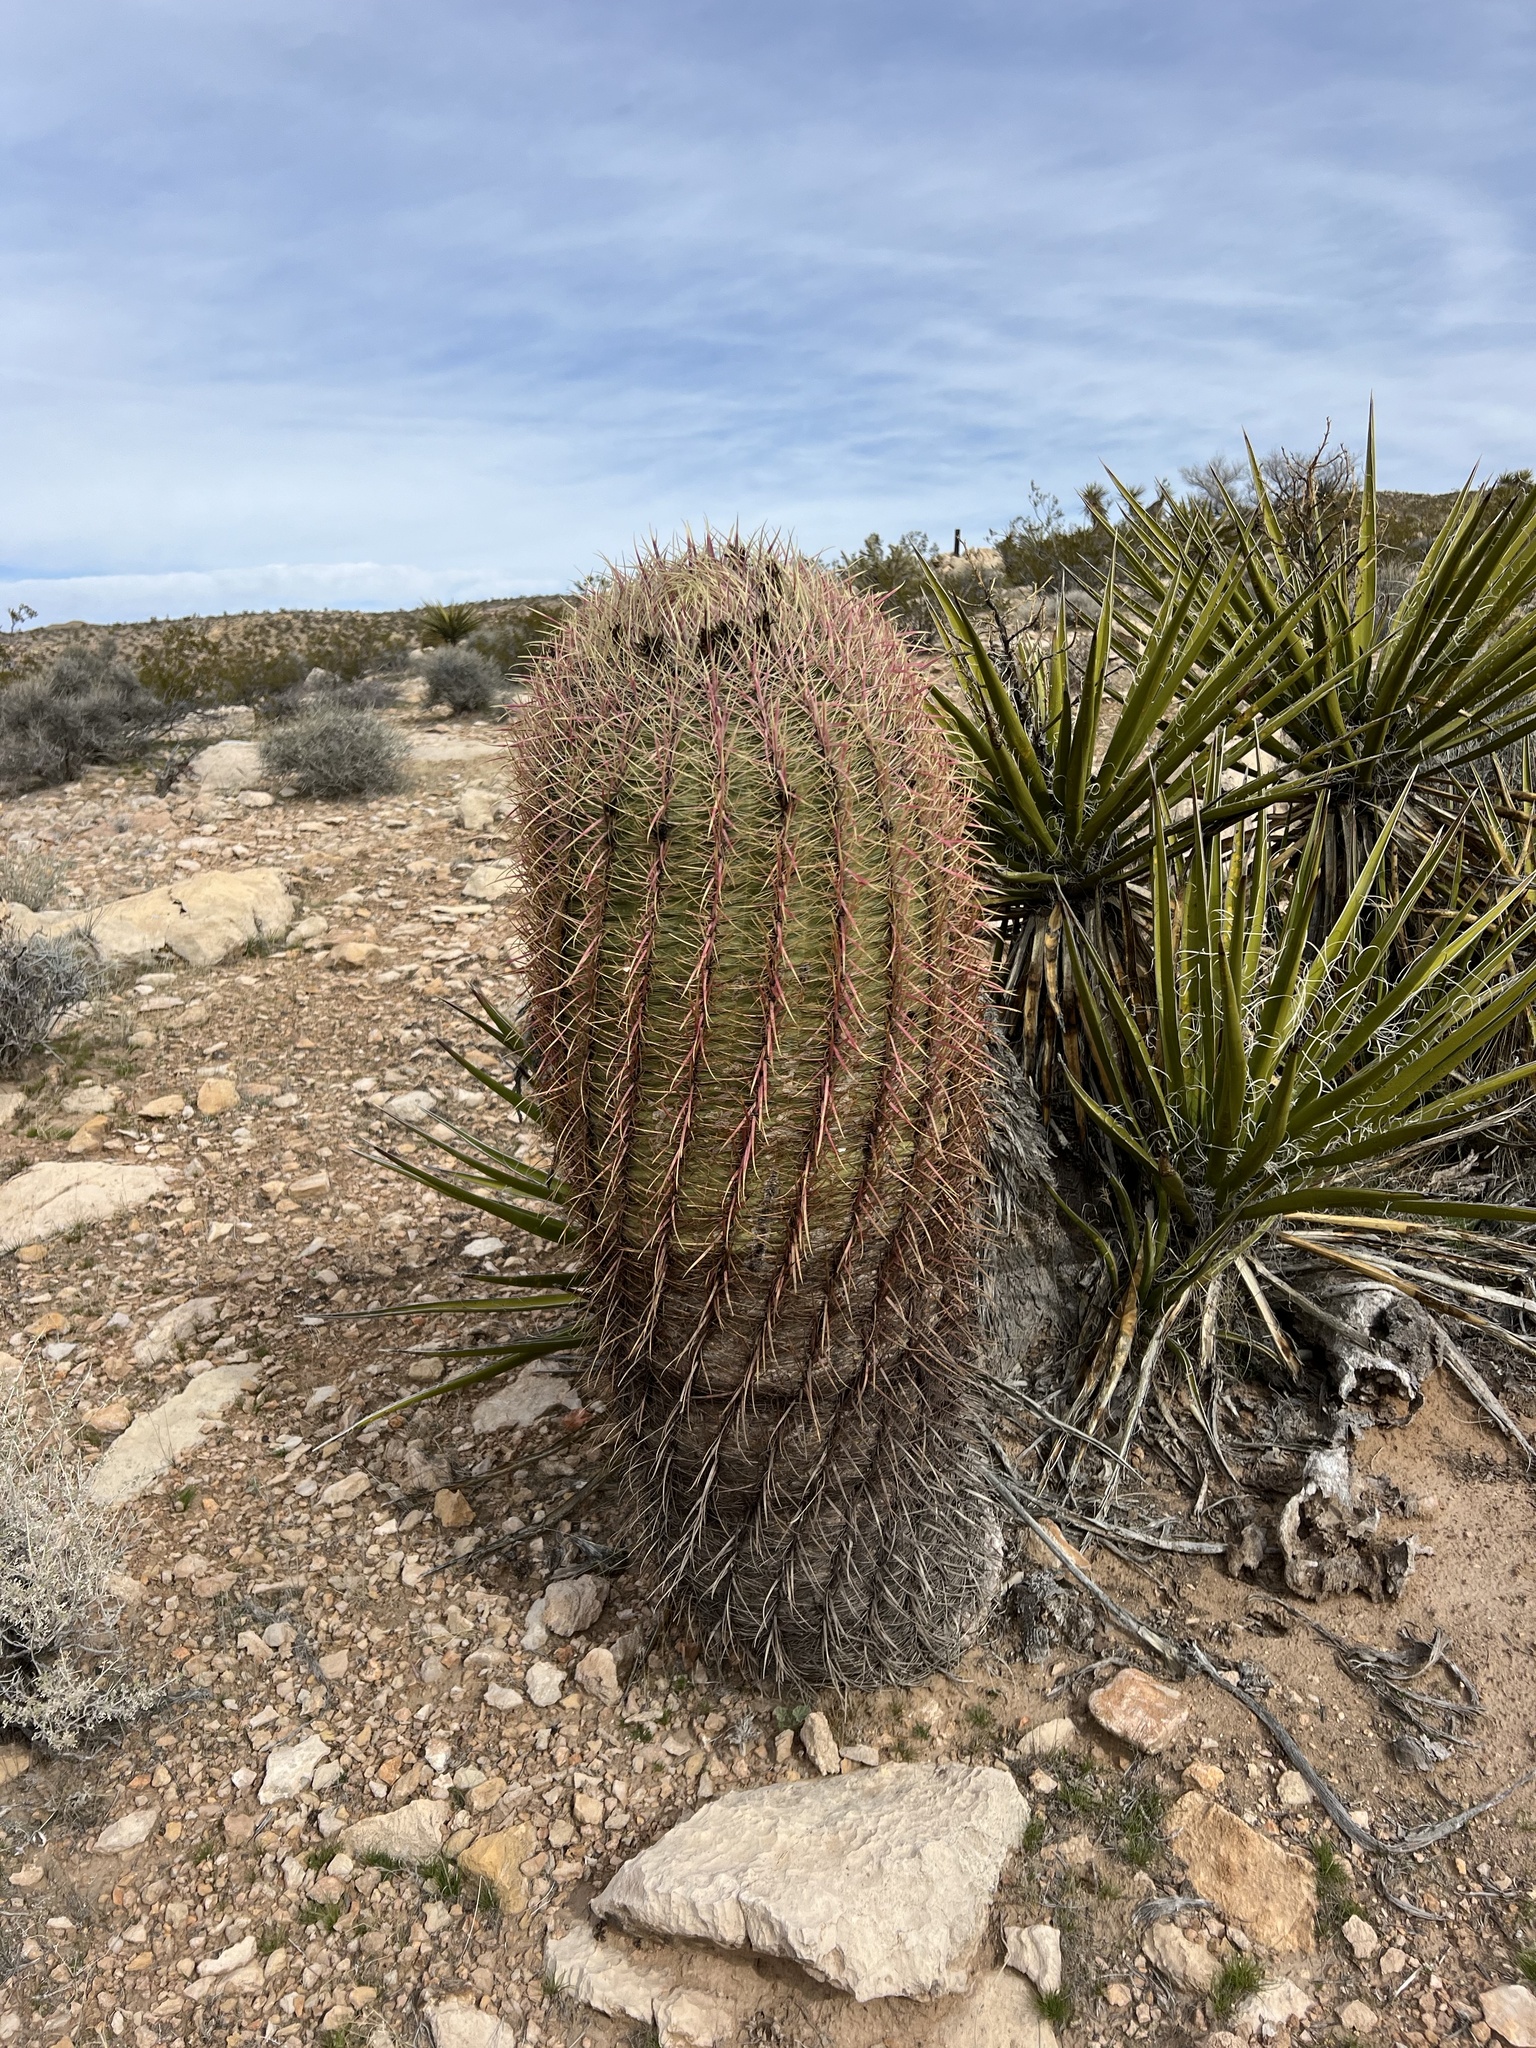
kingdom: Plantae
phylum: Tracheophyta
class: Magnoliopsida
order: Caryophyllales
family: Cactaceae
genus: Ferocactus
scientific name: Ferocactus cylindraceus
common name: California barrel cactus
